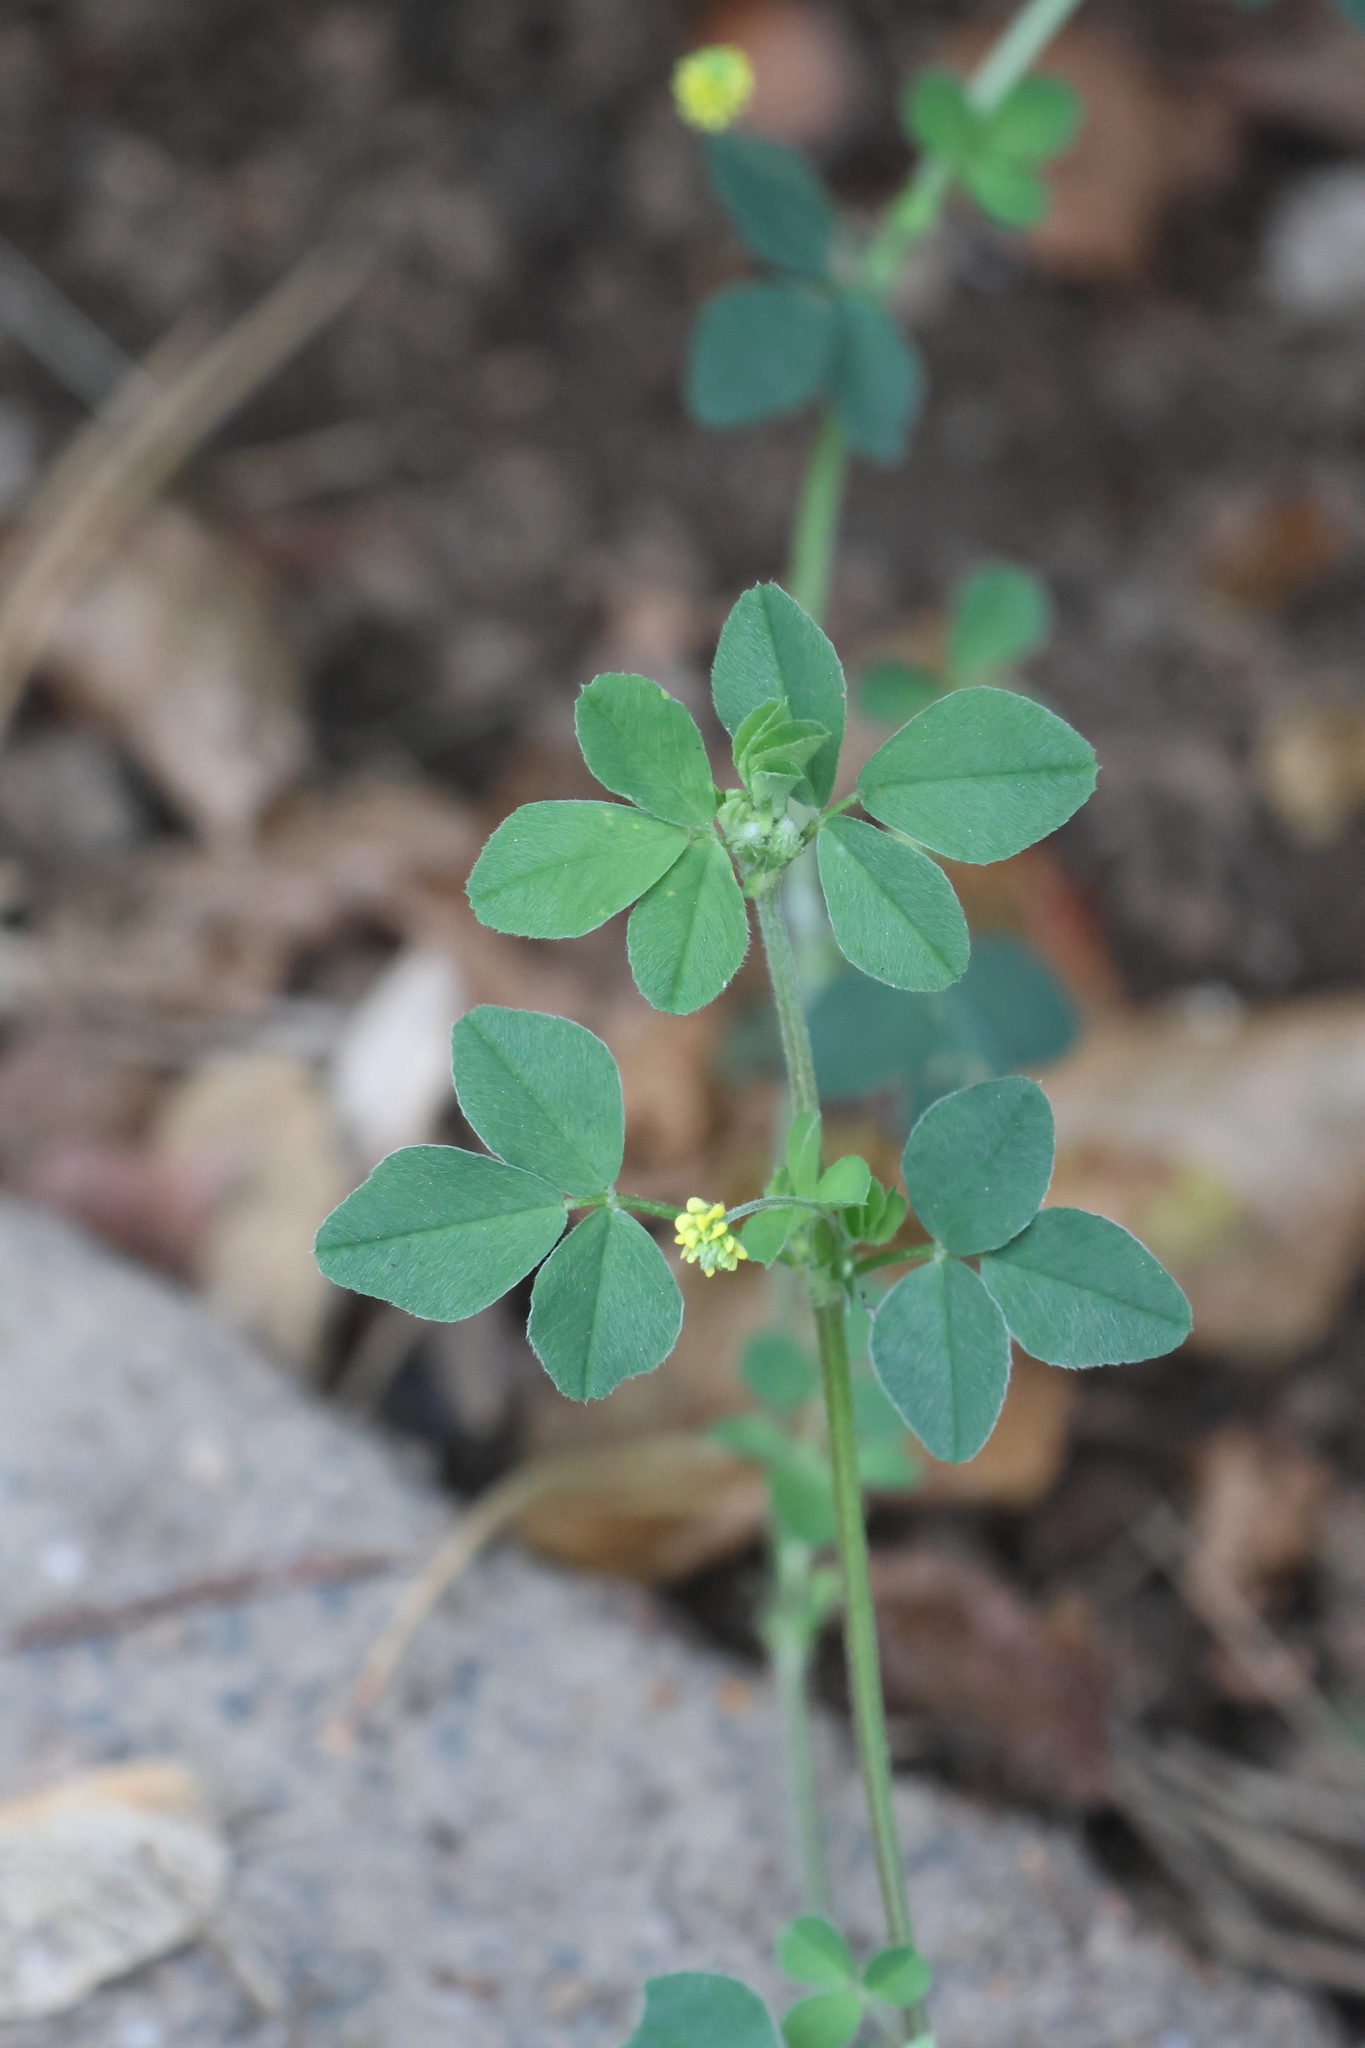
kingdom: Plantae
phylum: Tracheophyta
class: Magnoliopsida
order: Fabales
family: Fabaceae
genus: Medicago
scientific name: Medicago lupulina
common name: Black medick
